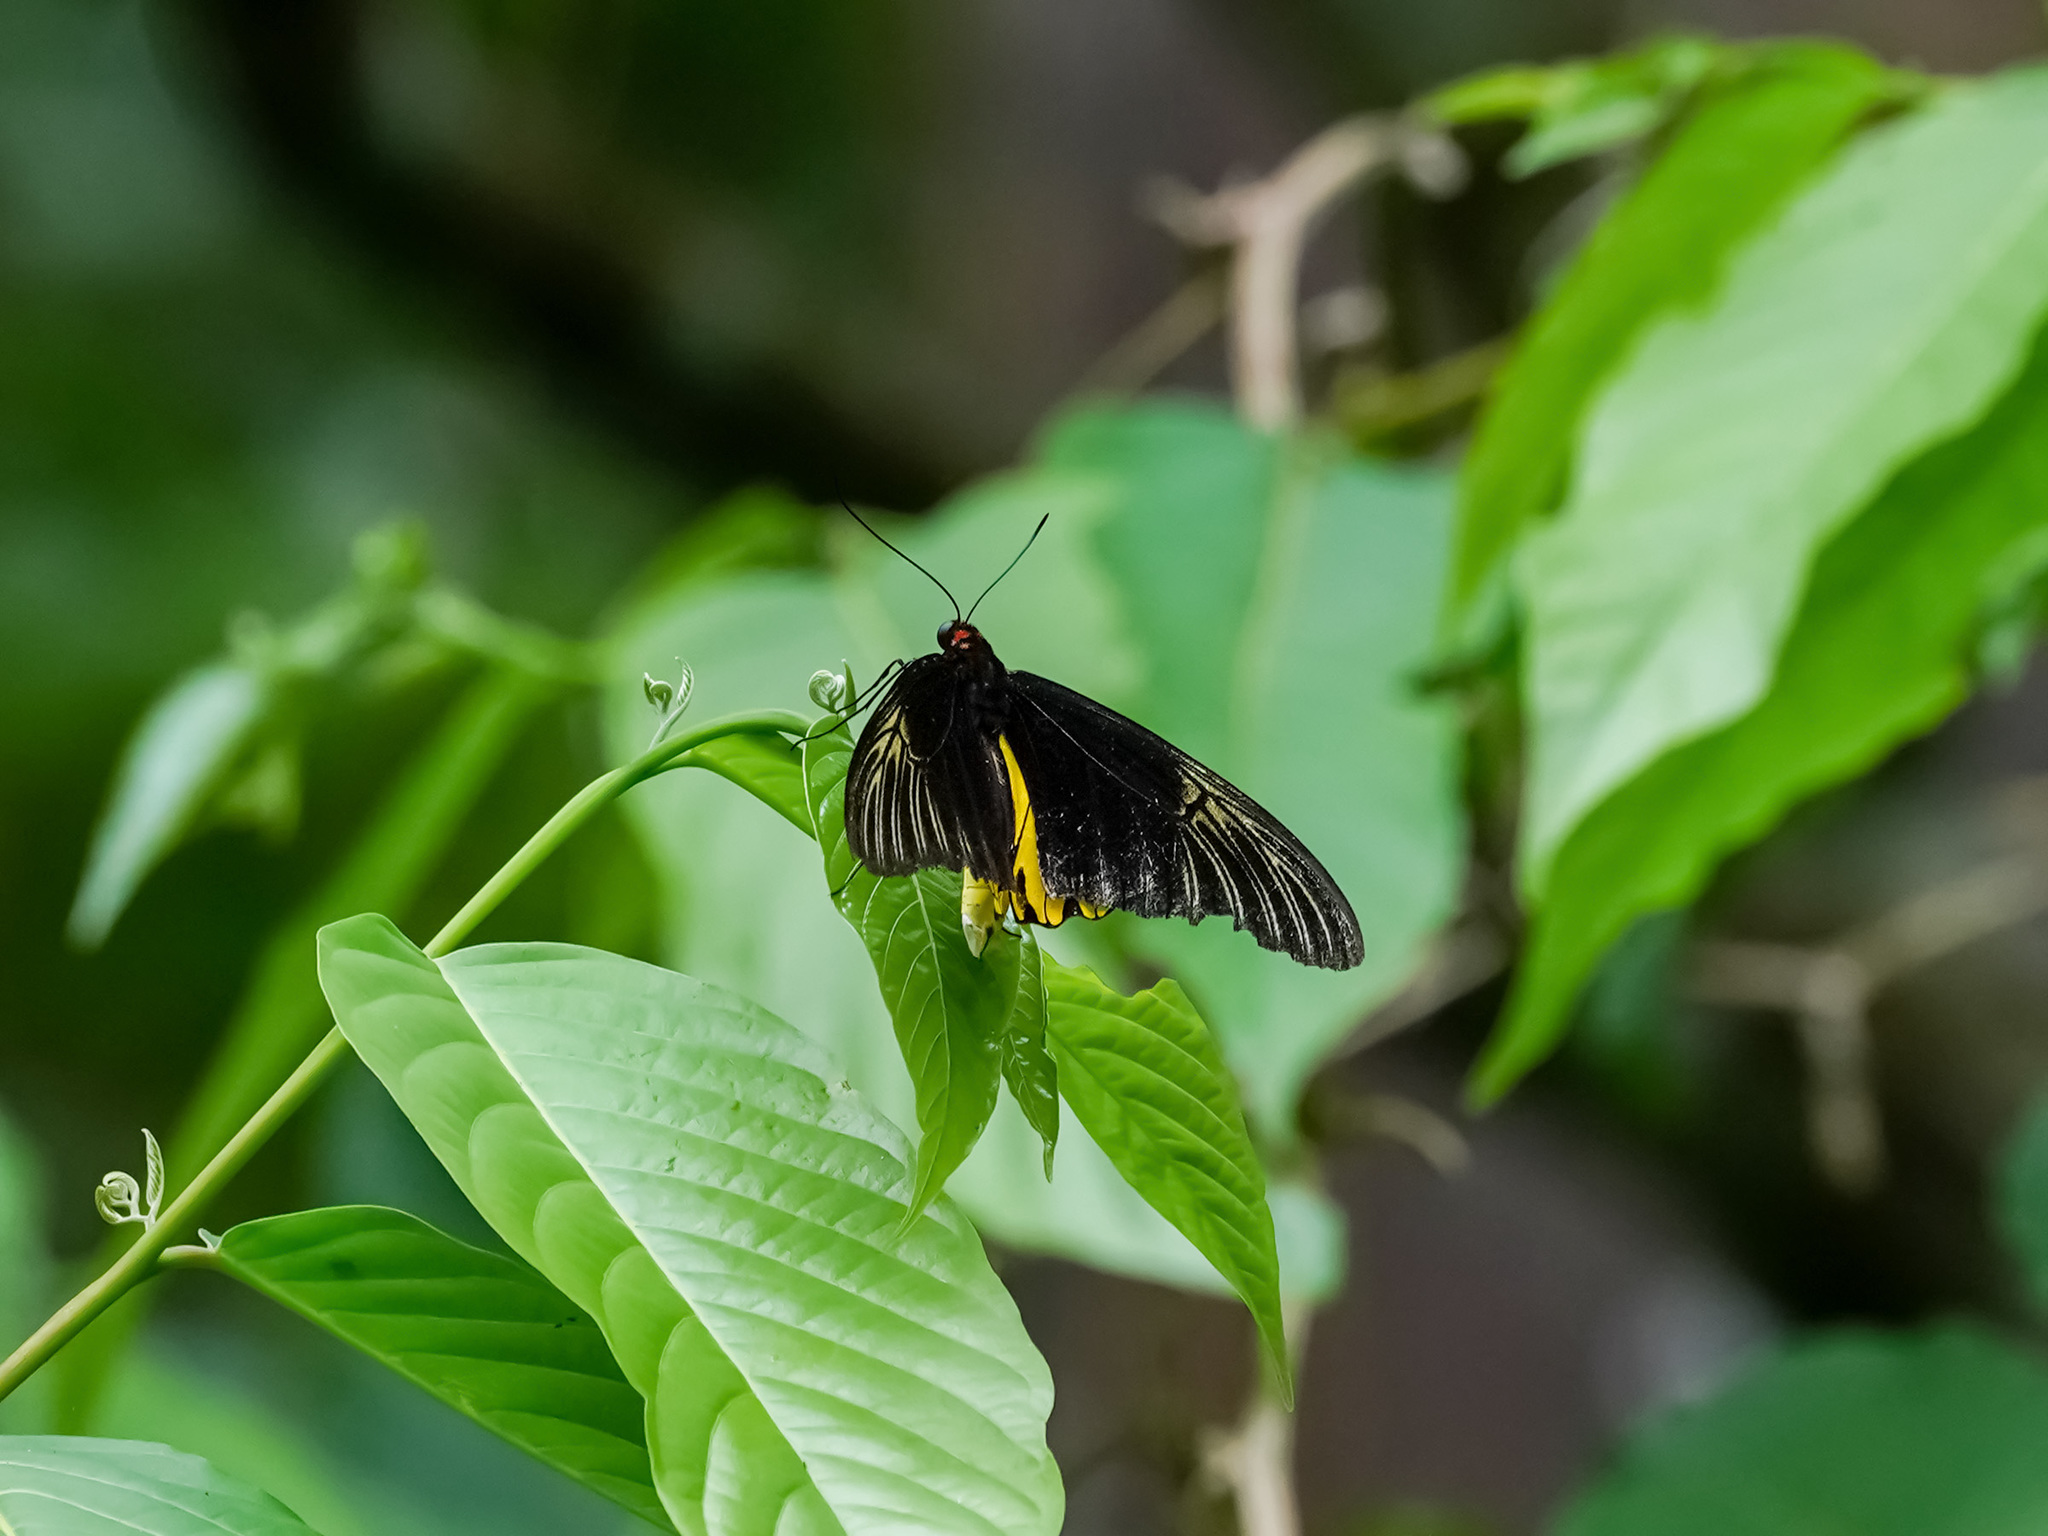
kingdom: Animalia
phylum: Arthropoda
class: Insecta
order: Lepidoptera
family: Papilionidae
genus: Troides
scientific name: Troides amphrysus
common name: Malay birdwing
